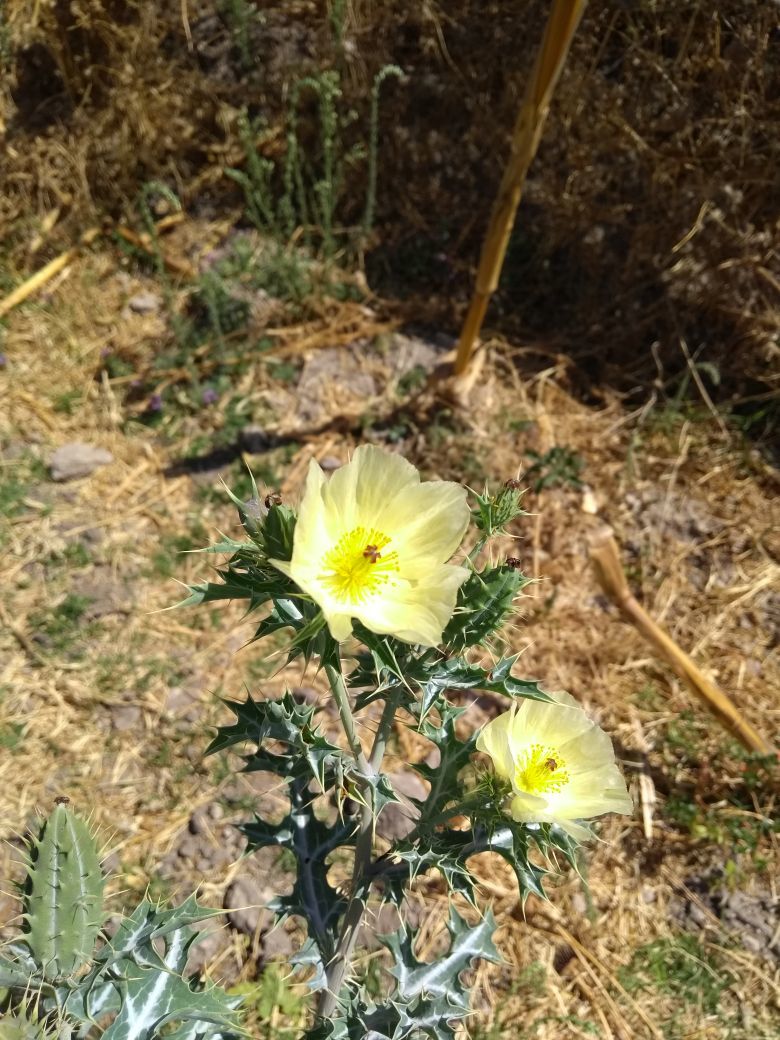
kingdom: Plantae
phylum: Tracheophyta
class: Magnoliopsida
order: Ranunculales
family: Papaveraceae
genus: Argemone
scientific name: Argemone ochroleuca
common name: White-flower mexican-poppy
